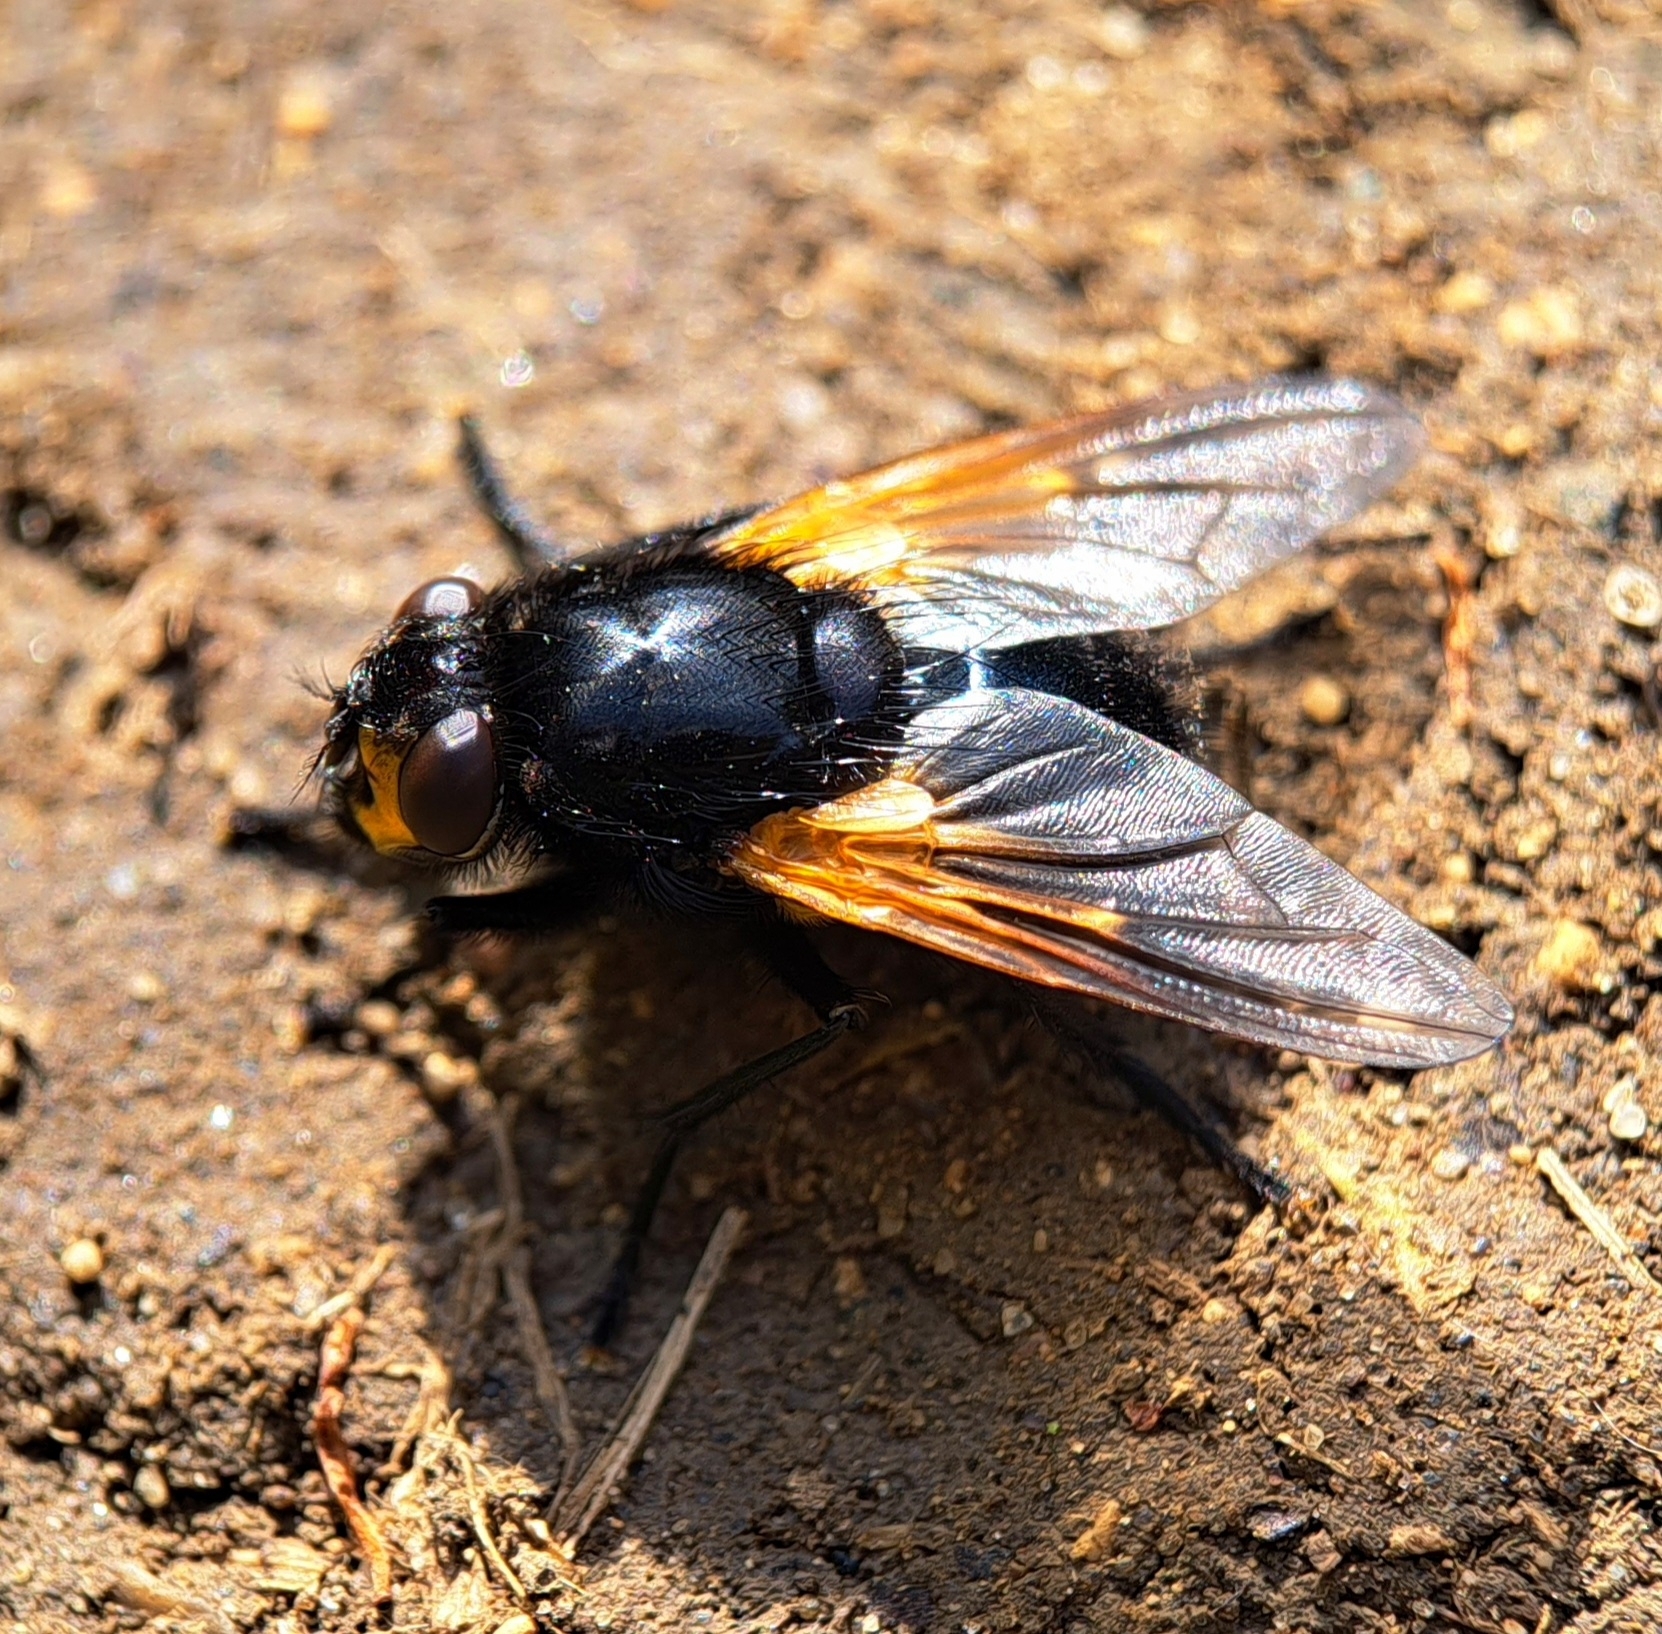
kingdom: Animalia
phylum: Arthropoda
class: Insecta
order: Diptera
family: Muscidae
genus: Mesembrina
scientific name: Mesembrina meridiana
